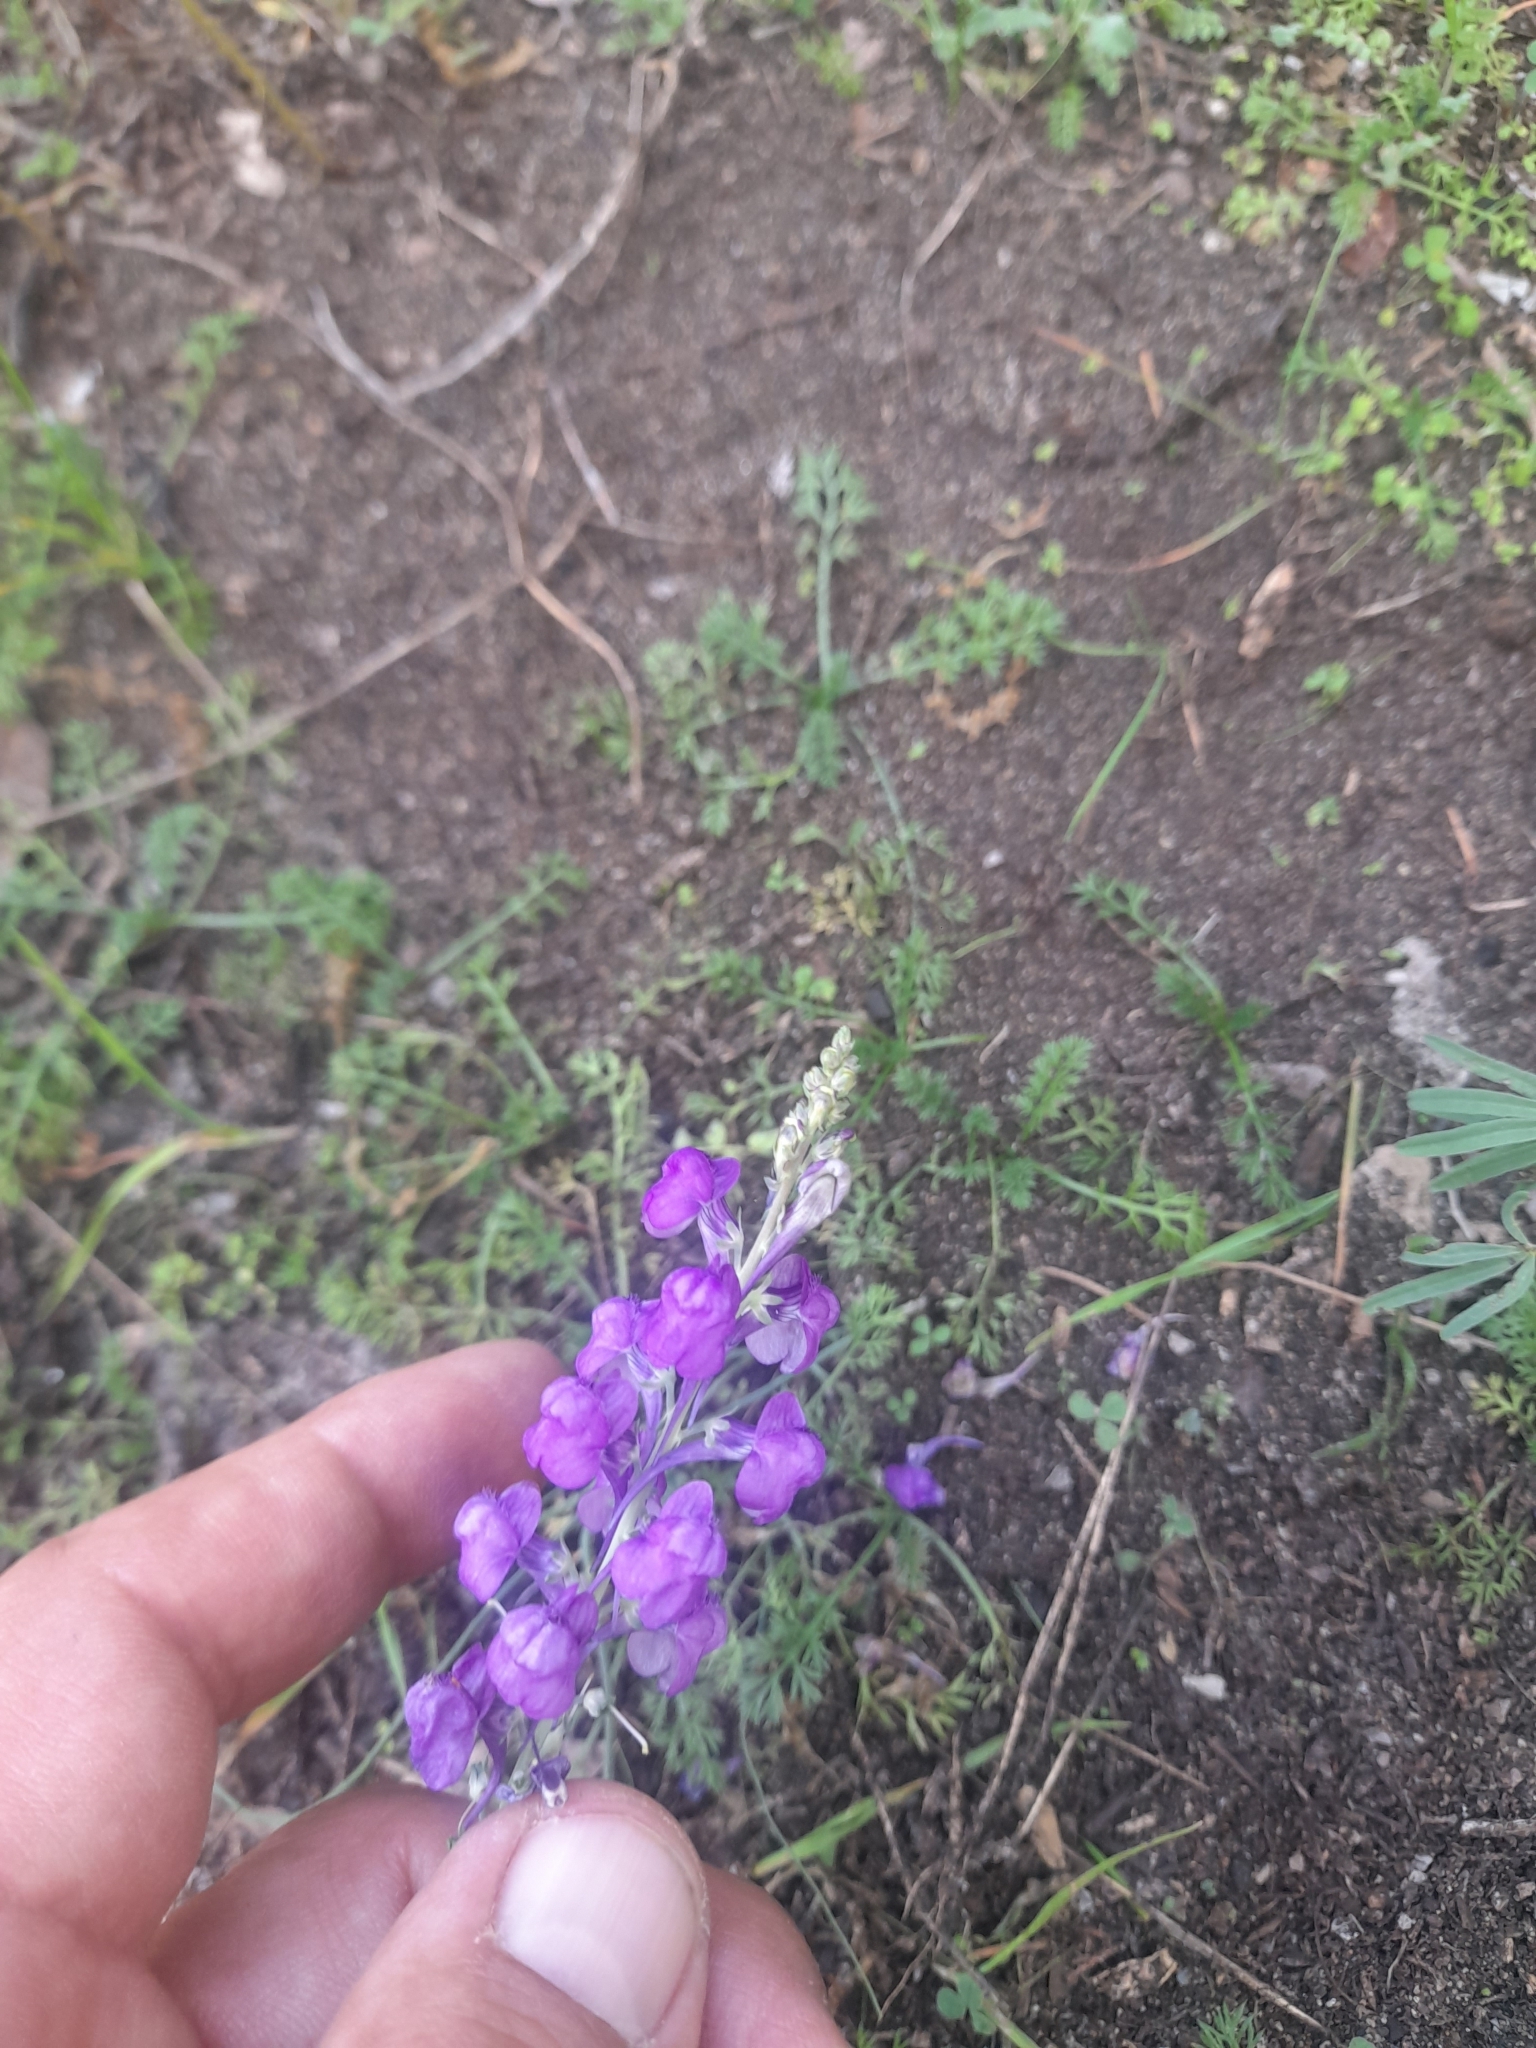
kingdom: Plantae
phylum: Tracheophyta
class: Magnoliopsida
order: Lamiales
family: Plantaginaceae
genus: Linaria
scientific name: Linaria purpurea
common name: Purple toadflax
